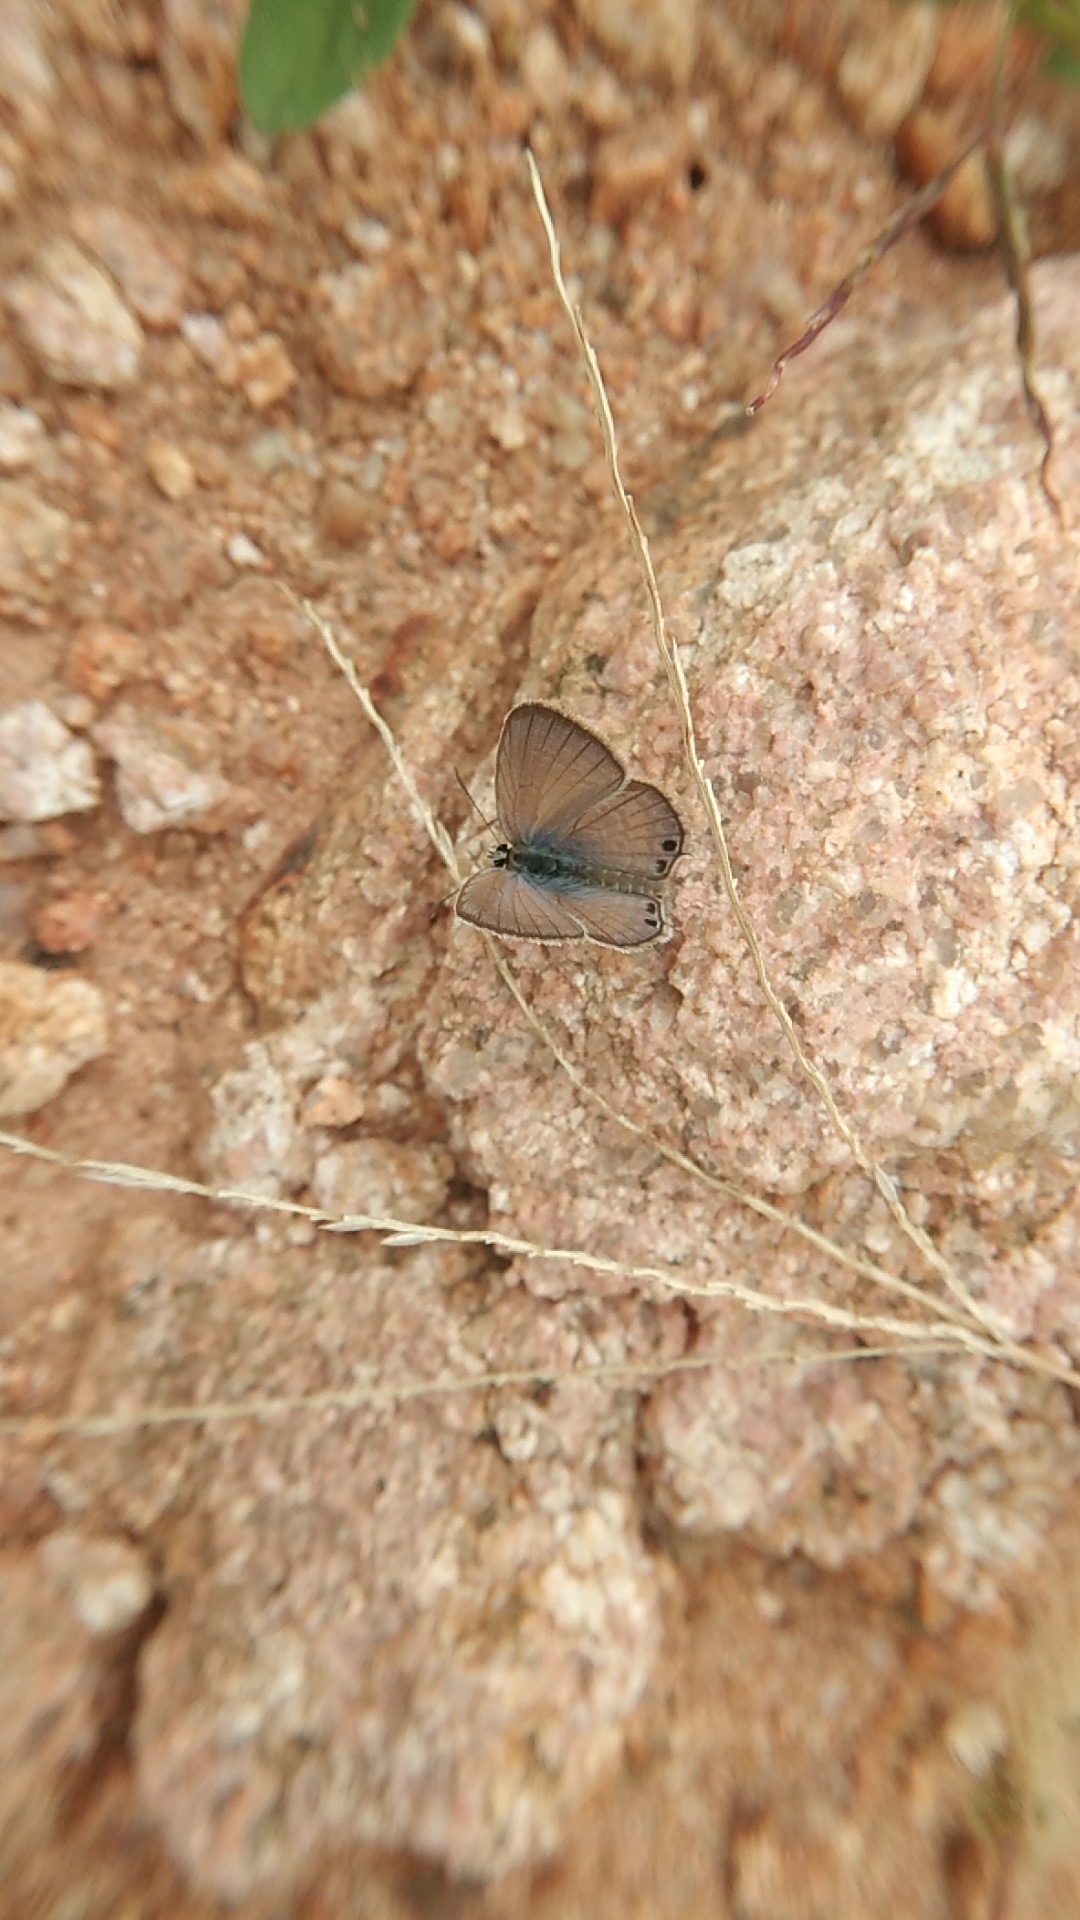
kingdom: Animalia
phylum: Arthropoda
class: Insecta
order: Lepidoptera
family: Lycaenidae
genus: Euchrysops
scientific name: Euchrysops cnejus
